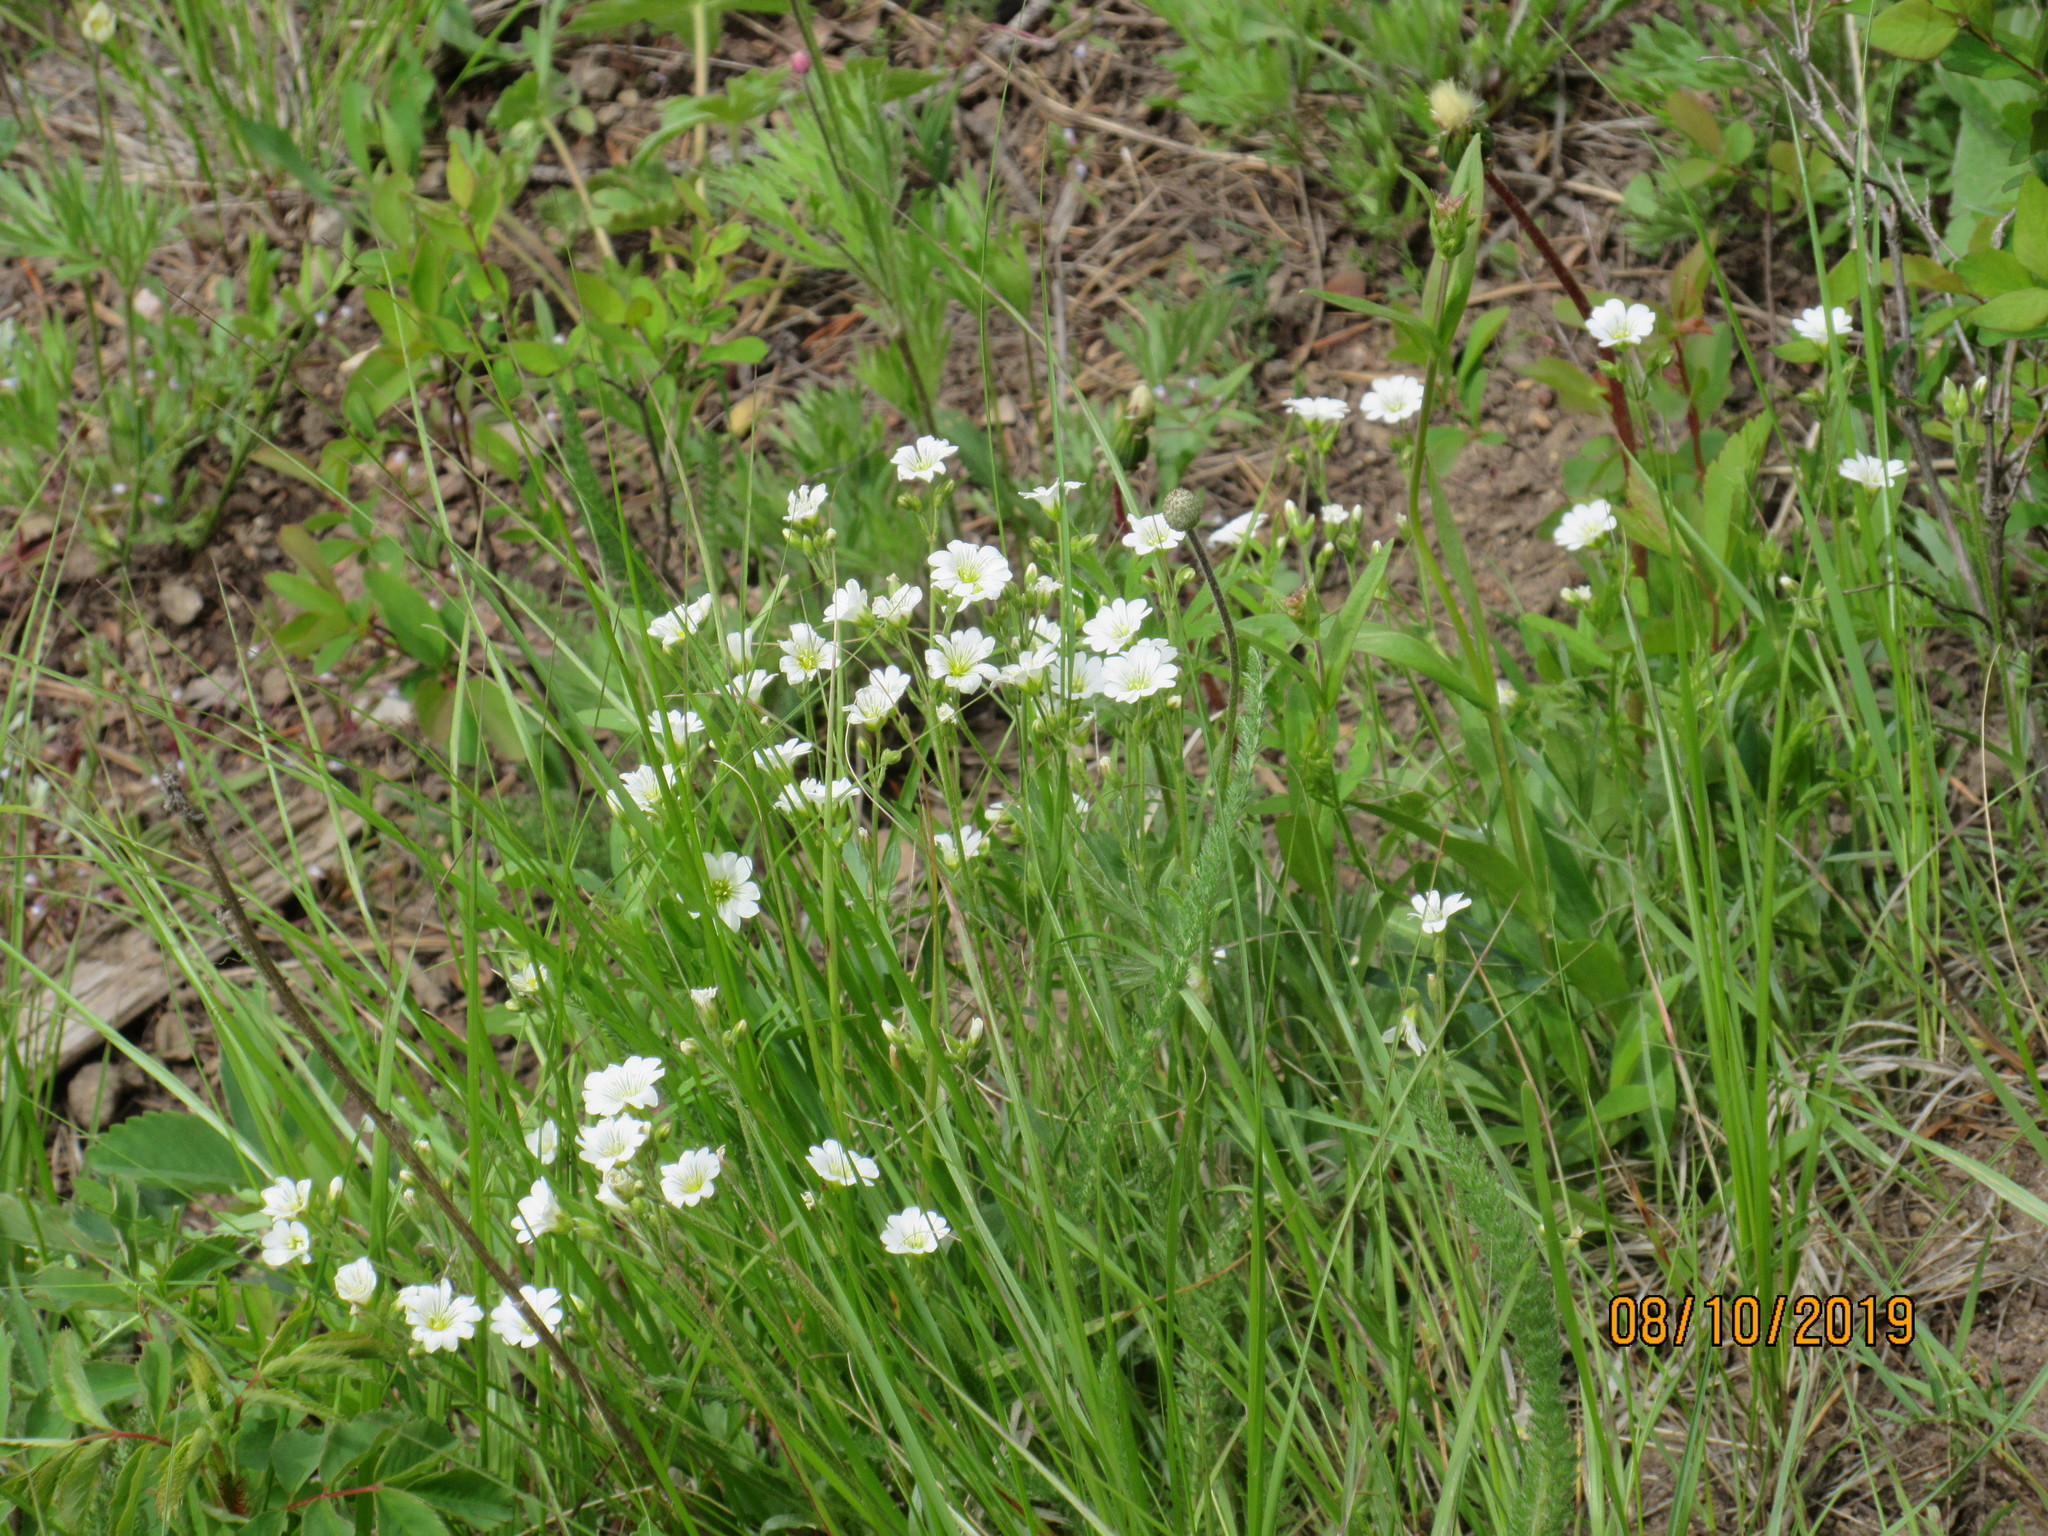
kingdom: Plantae
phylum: Tracheophyta
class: Magnoliopsida
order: Caryophyllales
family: Caryophyllaceae
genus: Cerastium
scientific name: Cerastium arvense
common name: Field mouse-ear
